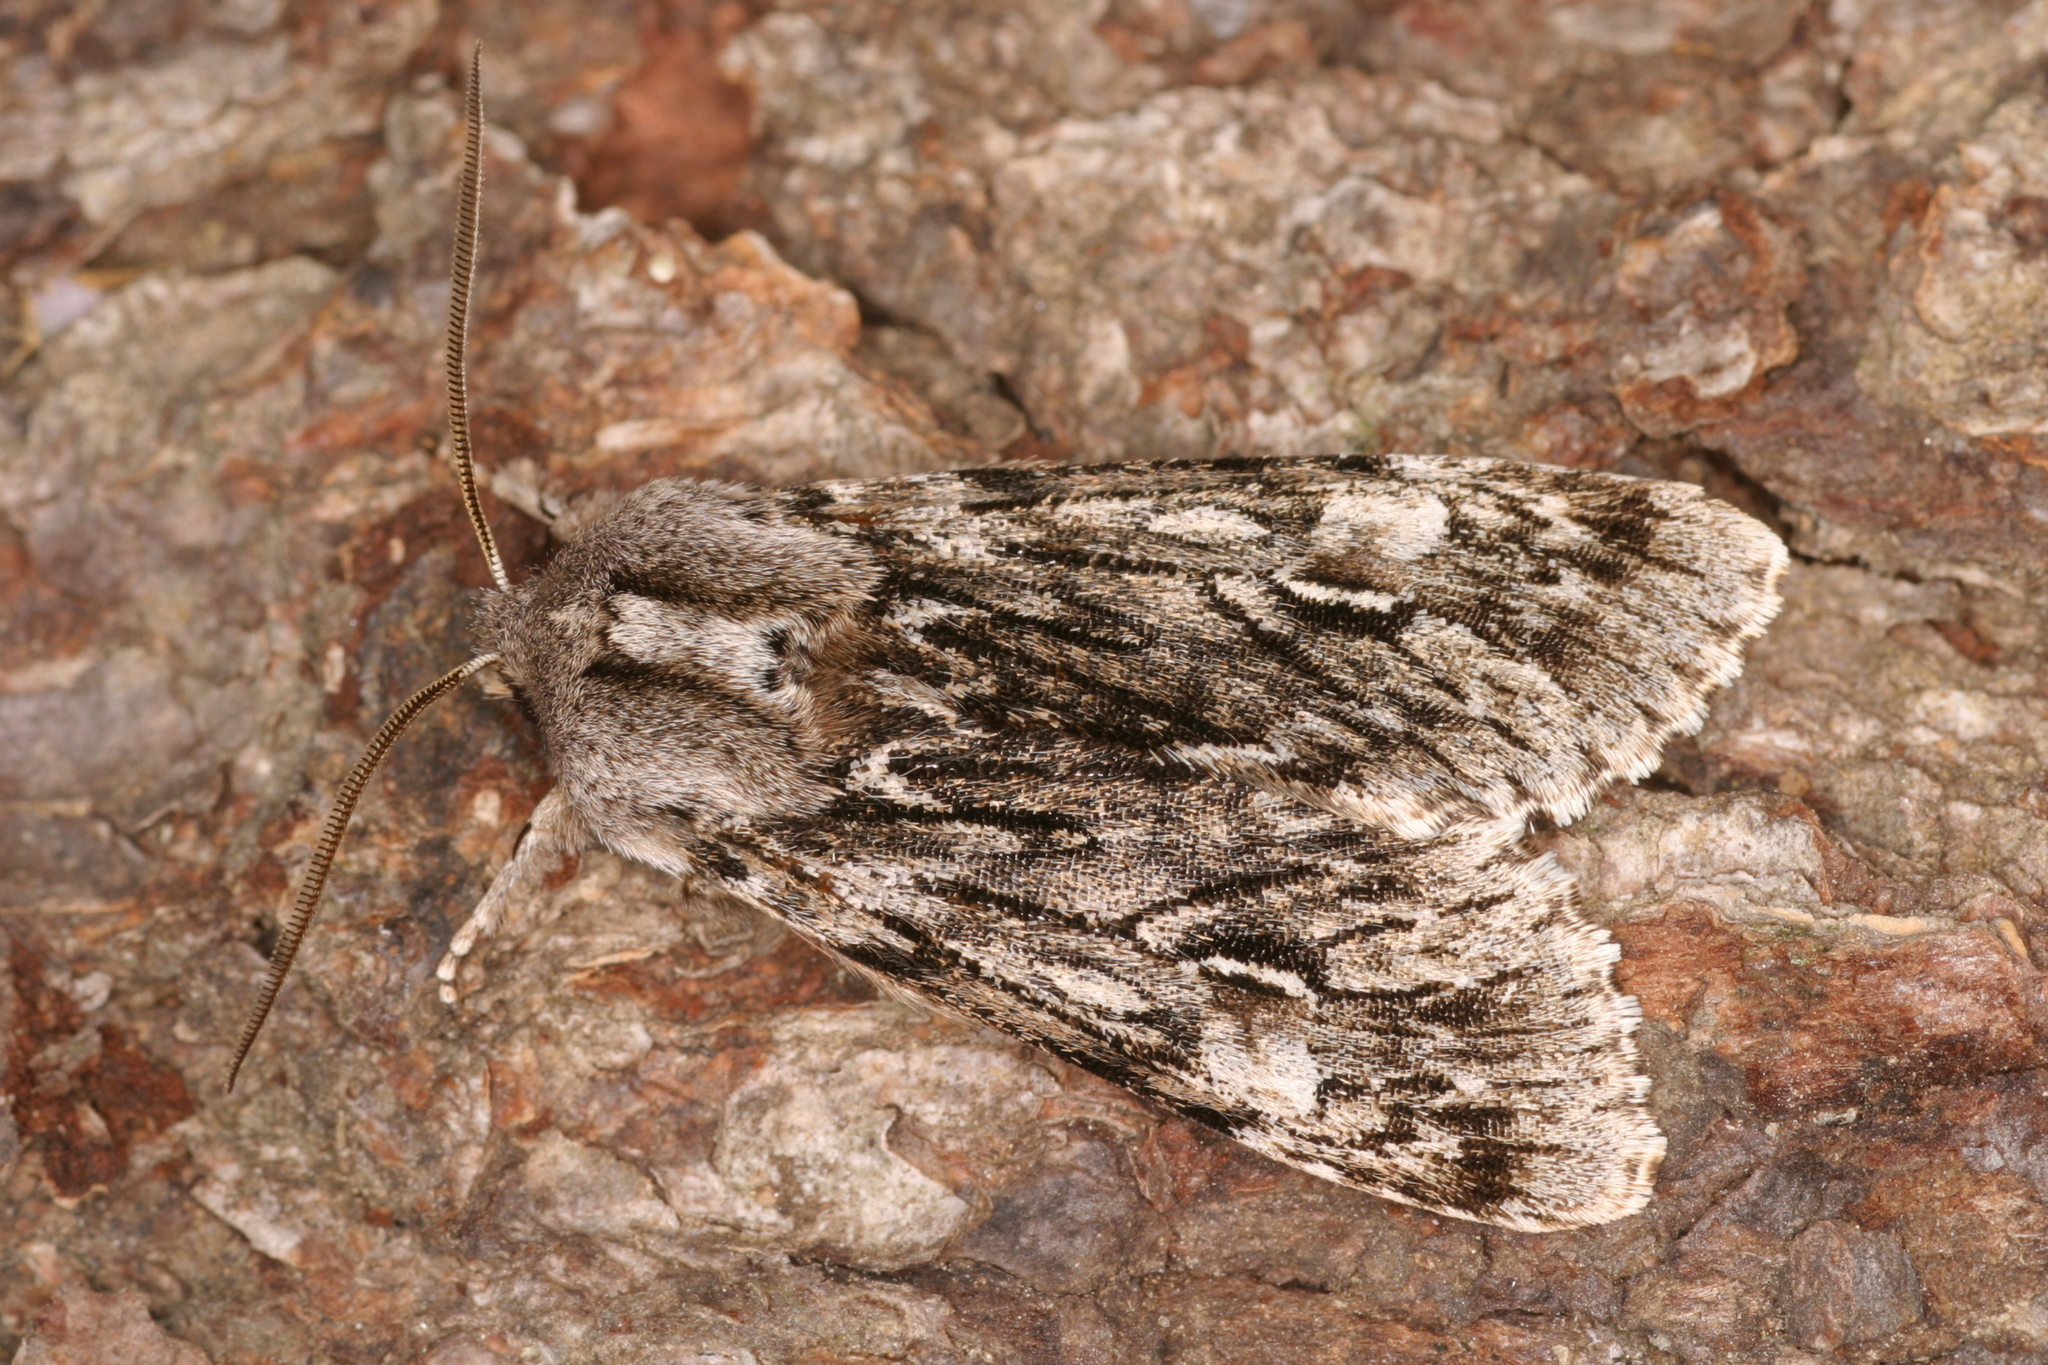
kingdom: Animalia
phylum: Arthropoda
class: Insecta
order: Lepidoptera
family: Noctuidae
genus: Brachionycha
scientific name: Brachionycha nubeculosa
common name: Rannoch sprawler
